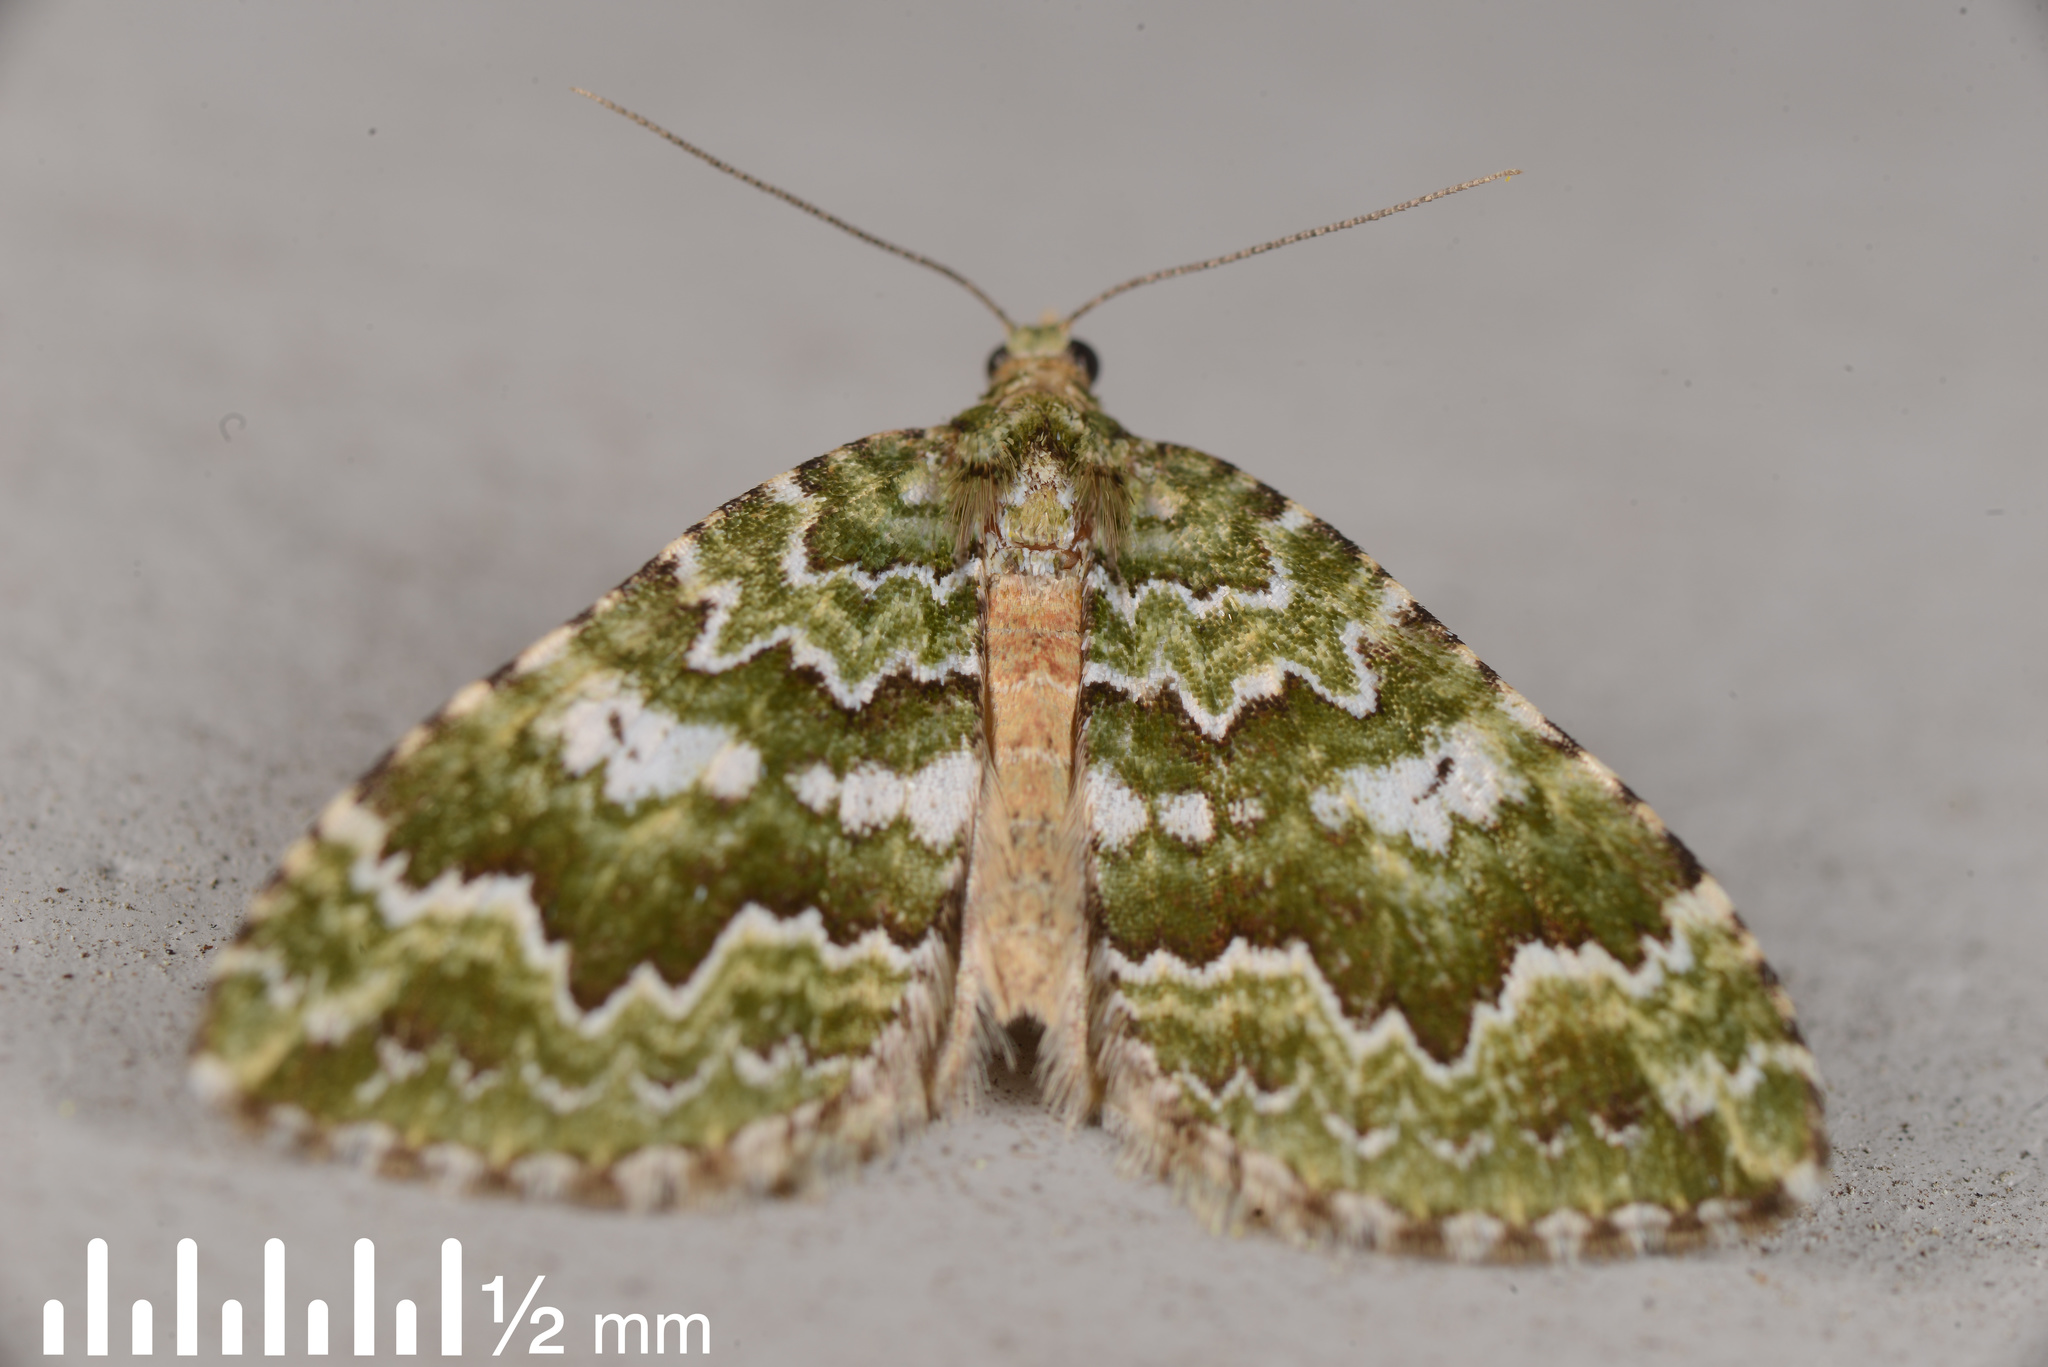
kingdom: Animalia
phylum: Arthropoda
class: Insecta
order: Lepidoptera
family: Geometridae
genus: Asaphodes
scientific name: Asaphodes beata
